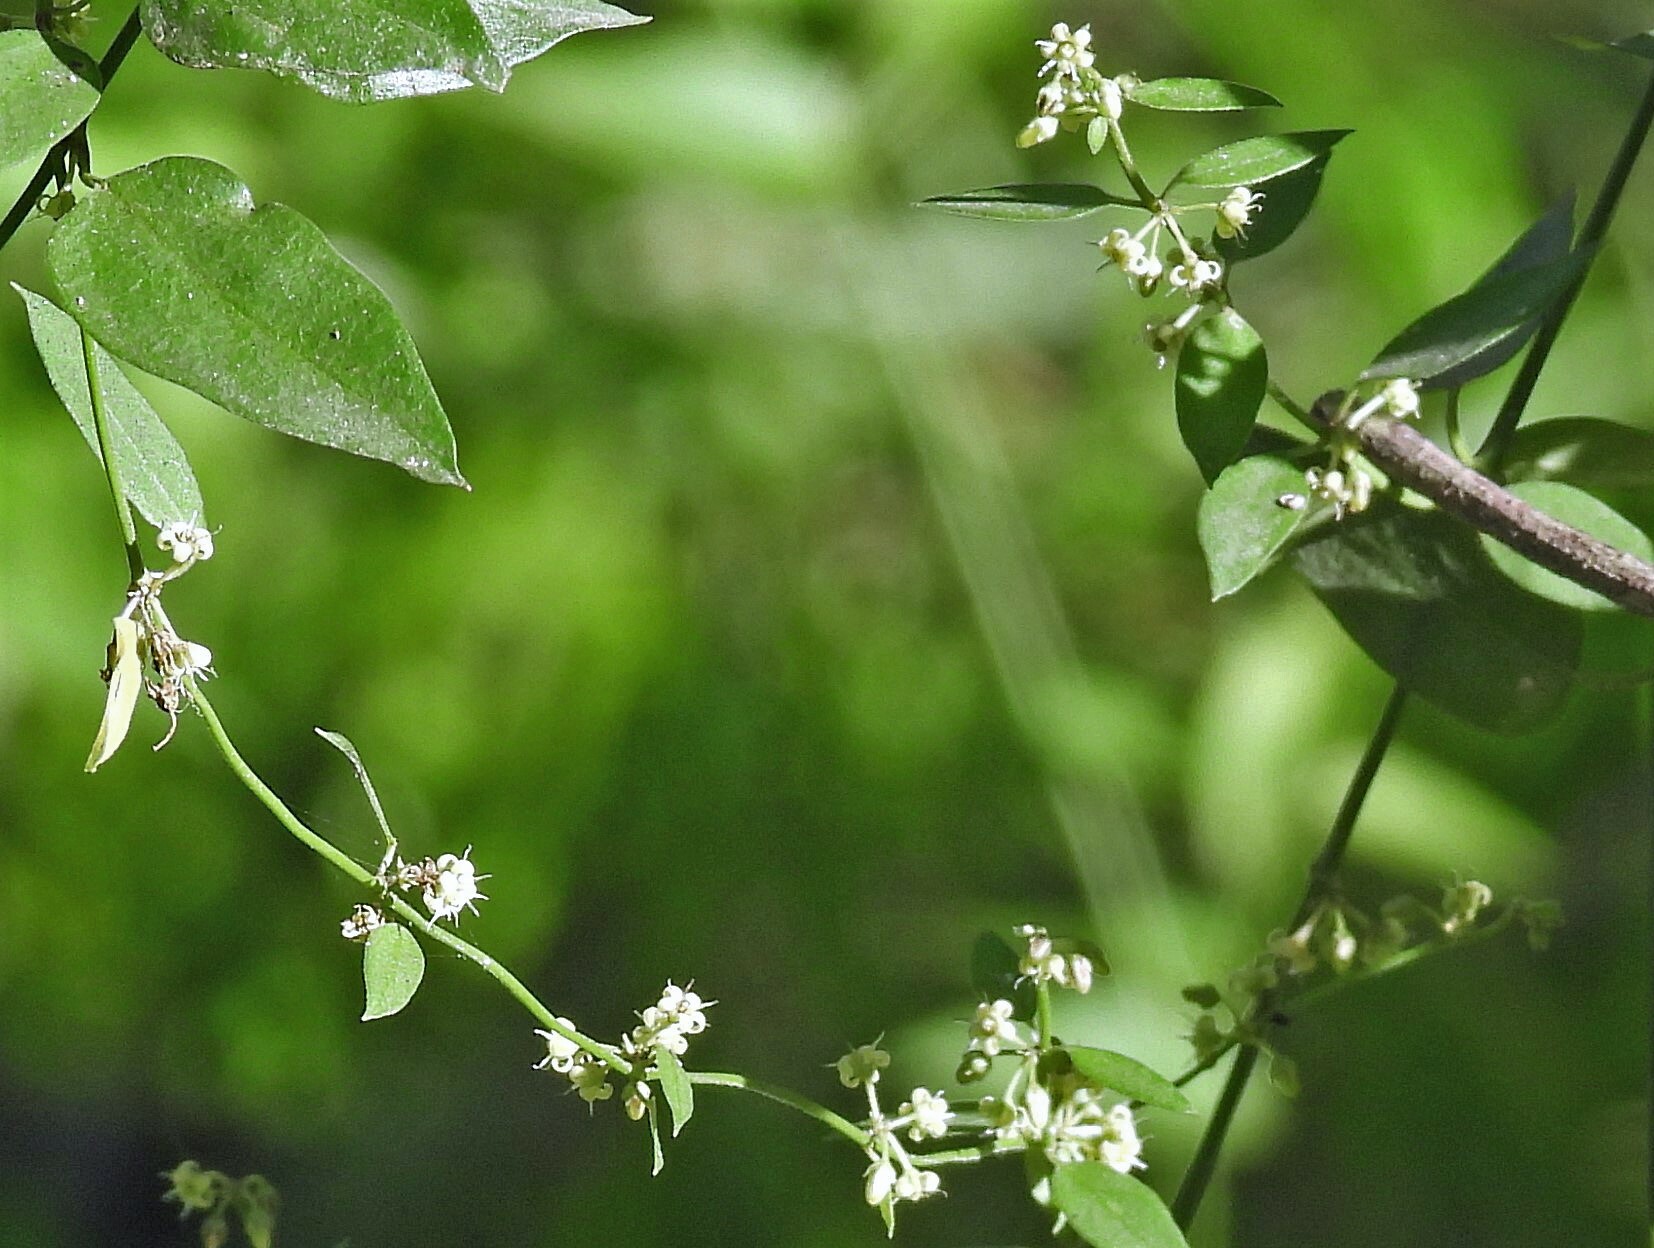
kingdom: Plantae
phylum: Tracheophyta
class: Magnoliopsida
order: Gentianales
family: Apocynaceae
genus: Orthosia
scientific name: Orthosia virgata
